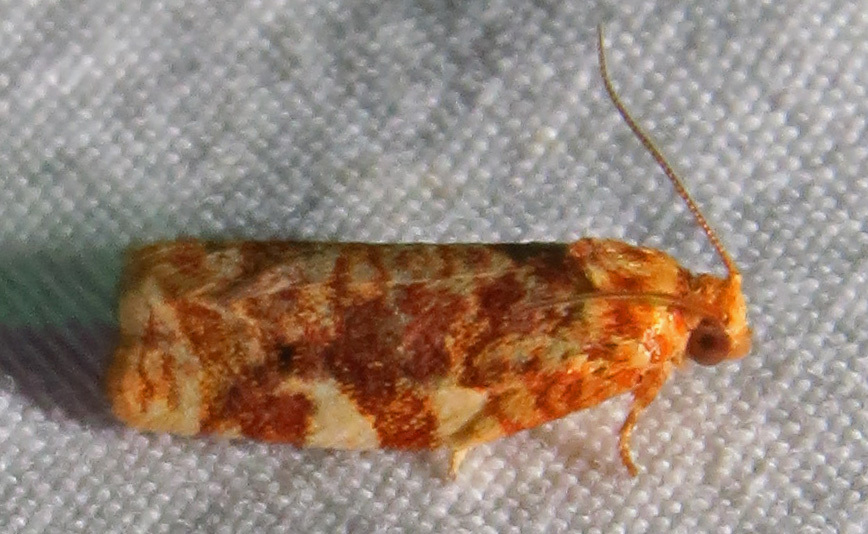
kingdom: Animalia
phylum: Arthropoda
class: Insecta
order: Lepidoptera
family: Tortricidae
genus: Archips
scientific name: Archips argyrospila
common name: Fruit-tree leafroller moth
